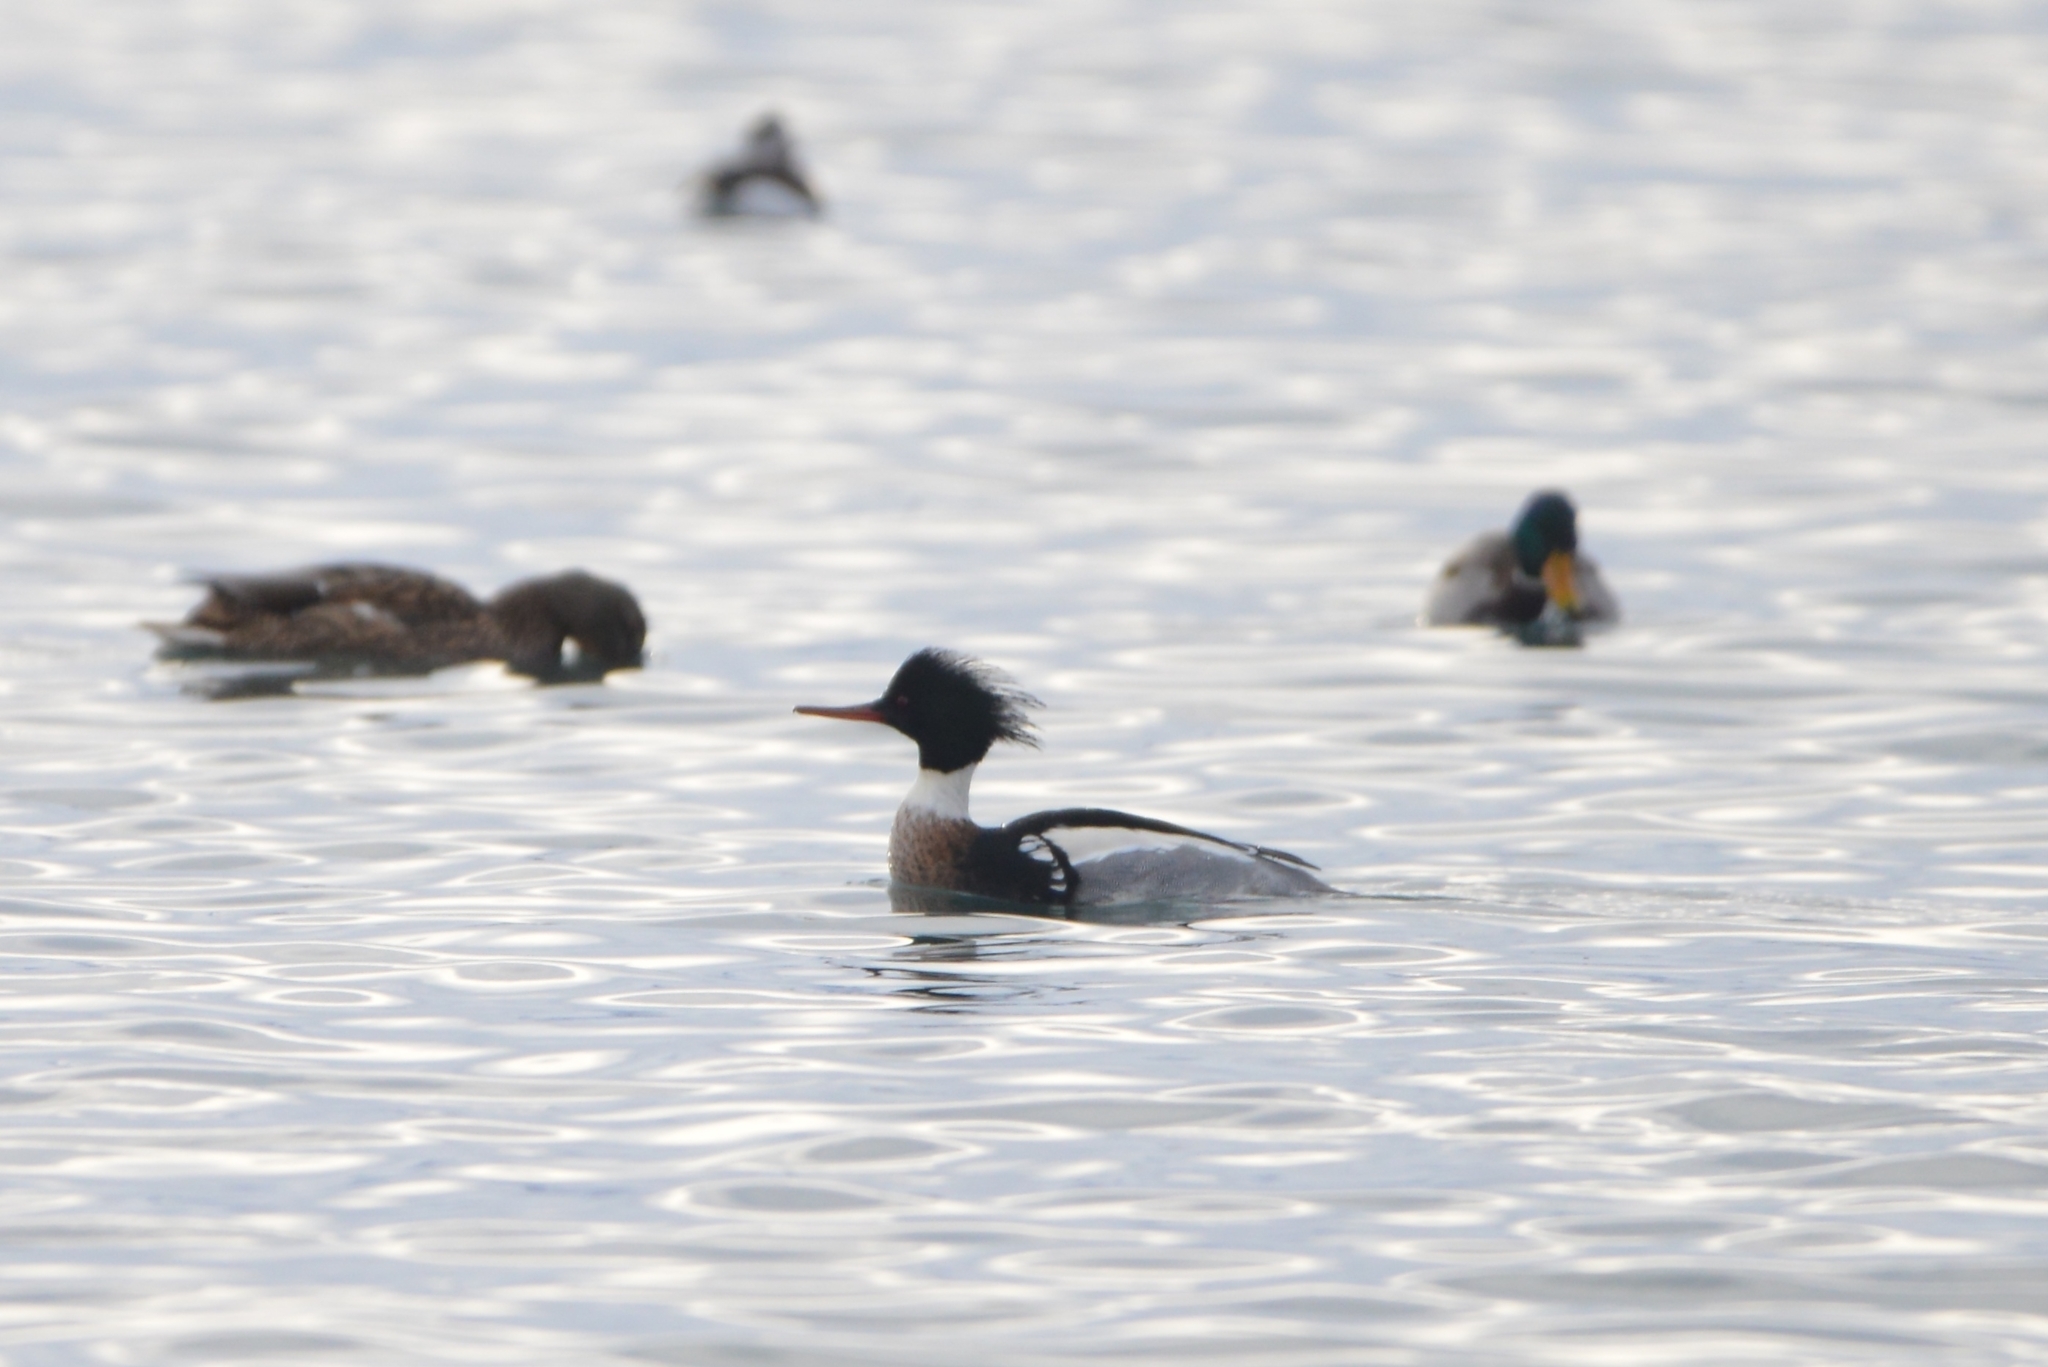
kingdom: Animalia
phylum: Chordata
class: Aves
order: Anseriformes
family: Anatidae
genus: Mergus
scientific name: Mergus serrator
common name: Red-breasted merganser
